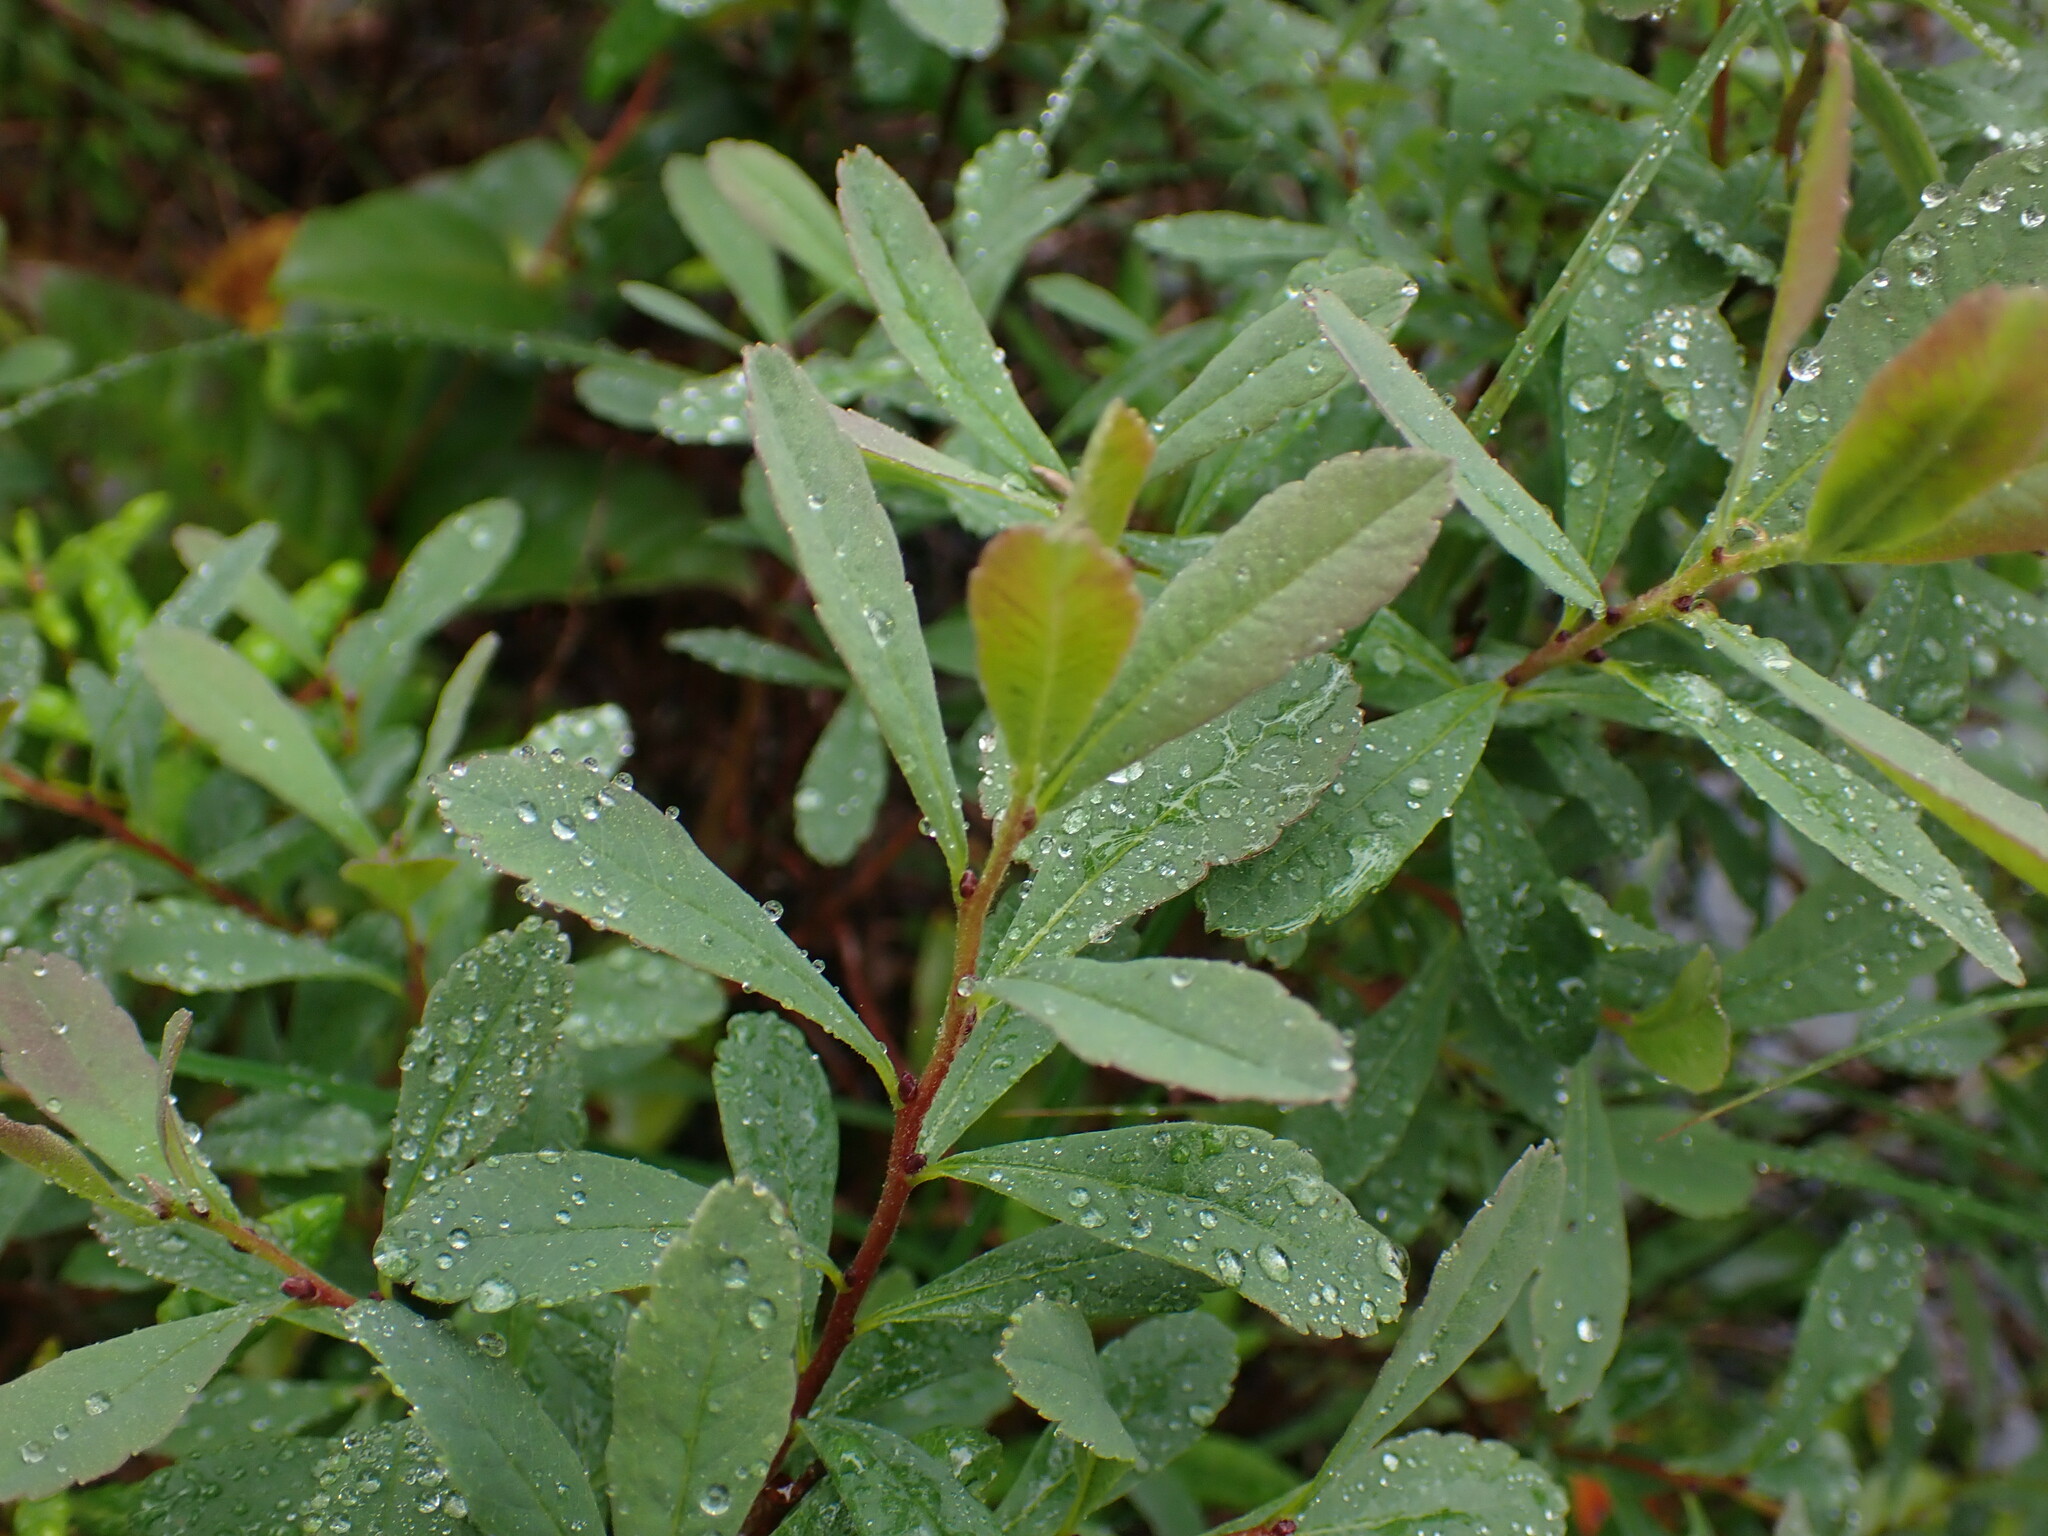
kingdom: Plantae
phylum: Tracheophyta
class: Magnoliopsida
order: Fagales
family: Myricaceae
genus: Myrica
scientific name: Myrica gale
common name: Sweet gale
